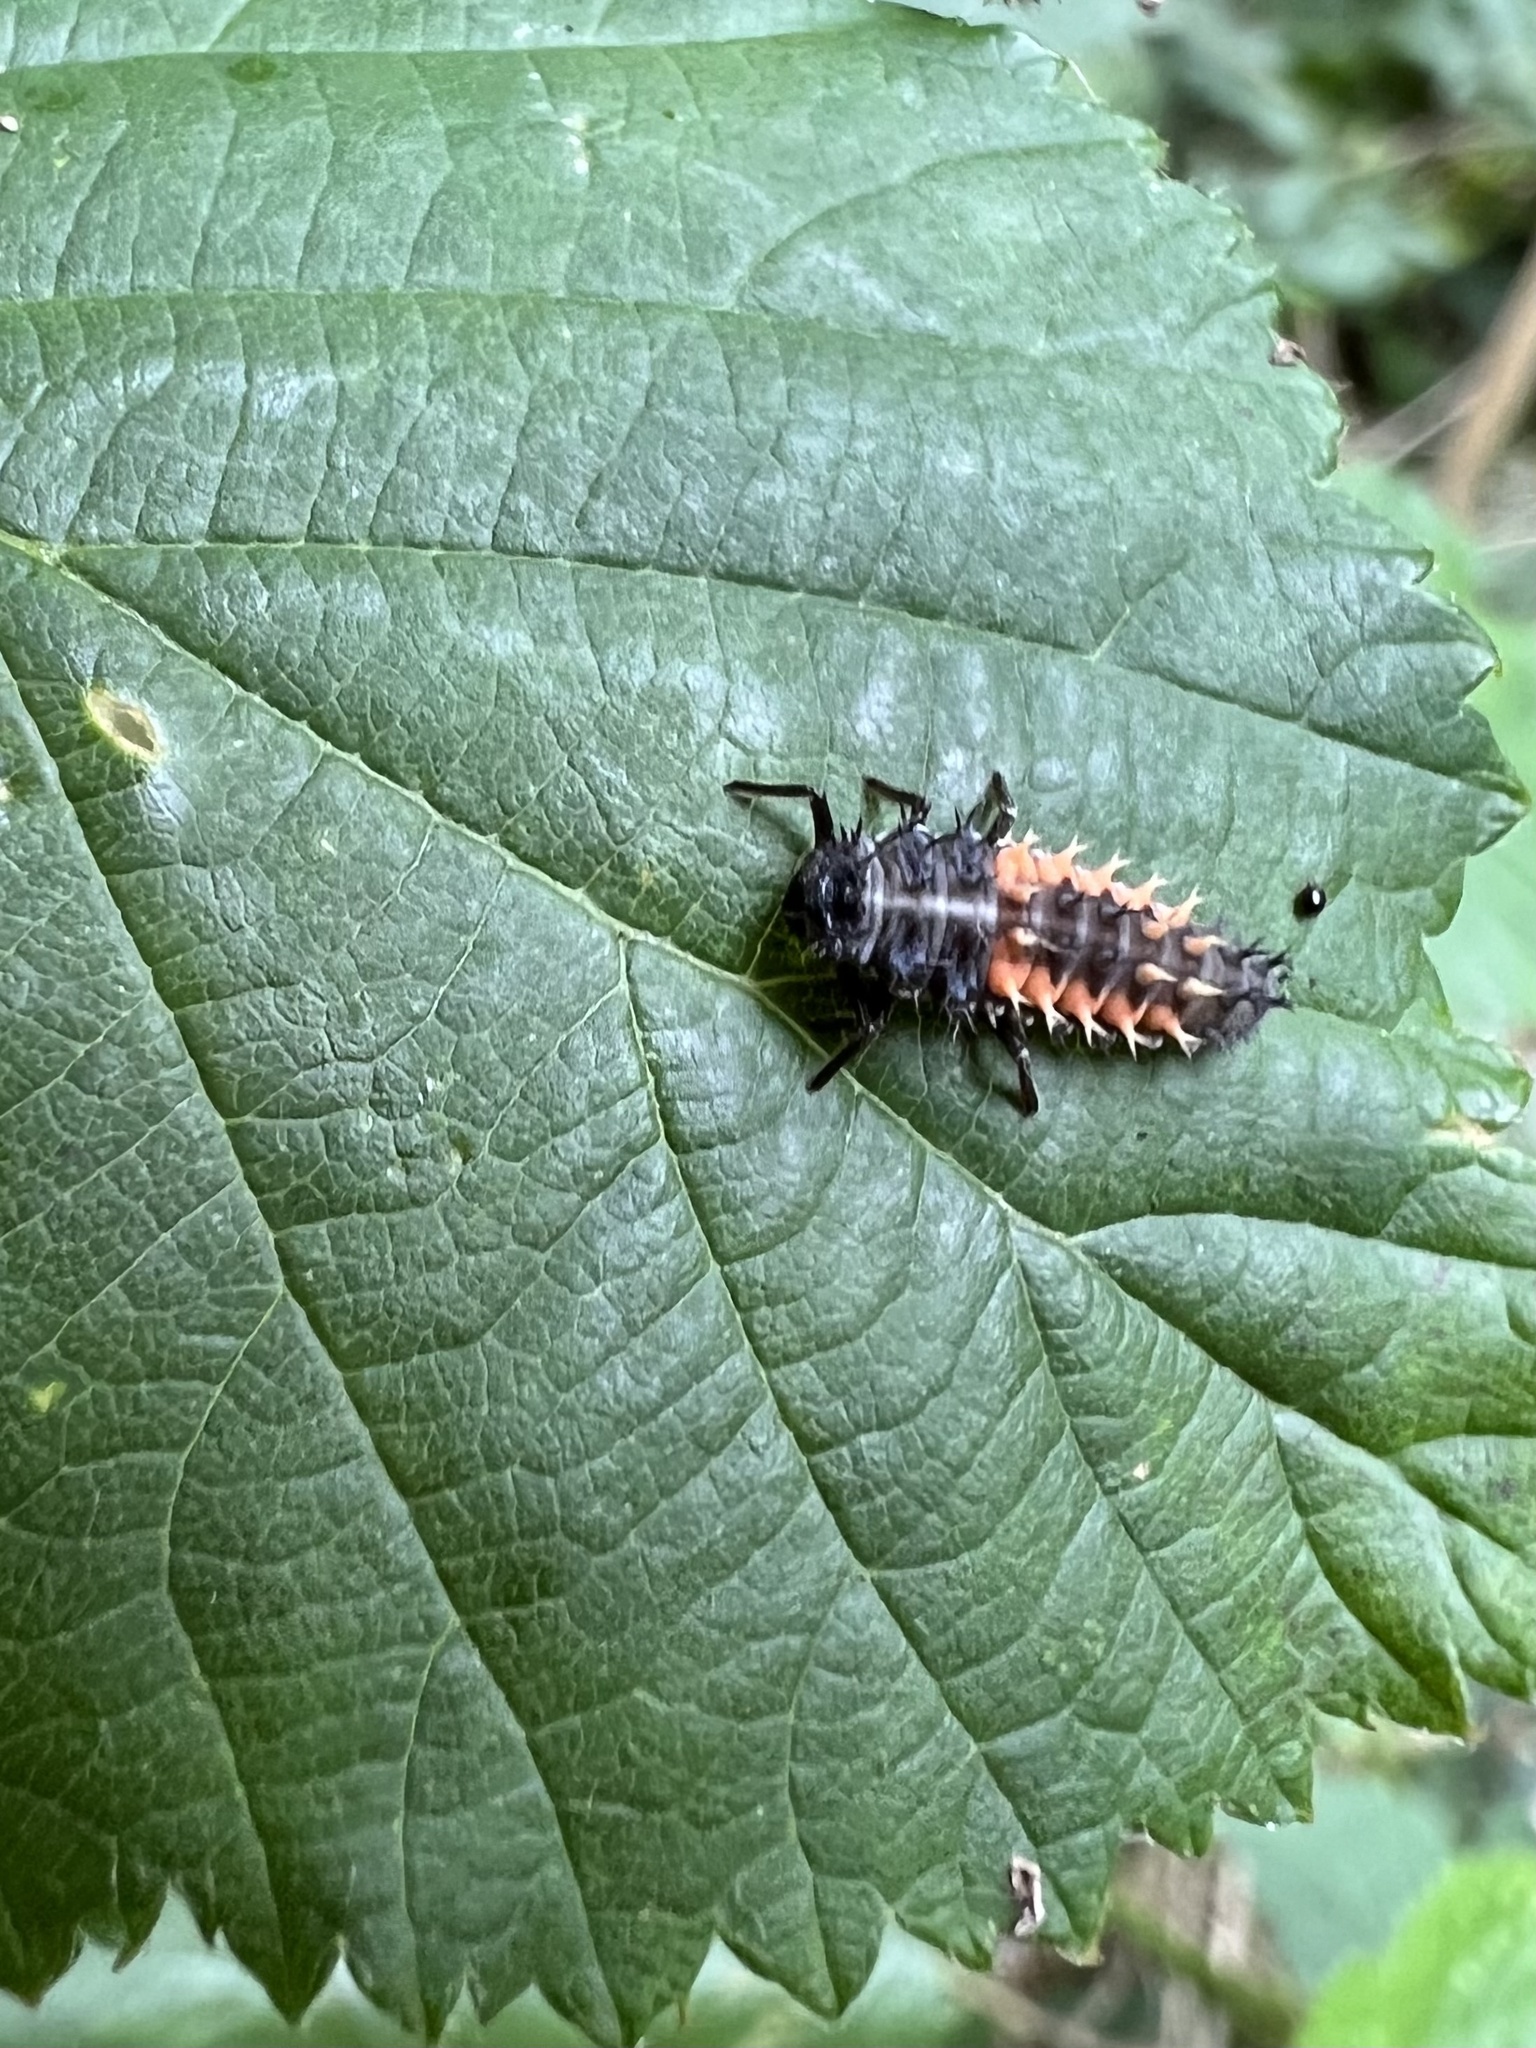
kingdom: Animalia
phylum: Arthropoda
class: Insecta
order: Coleoptera
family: Coccinellidae
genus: Harmonia
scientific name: Harmonia axyridis
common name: Harlequin ladybird
